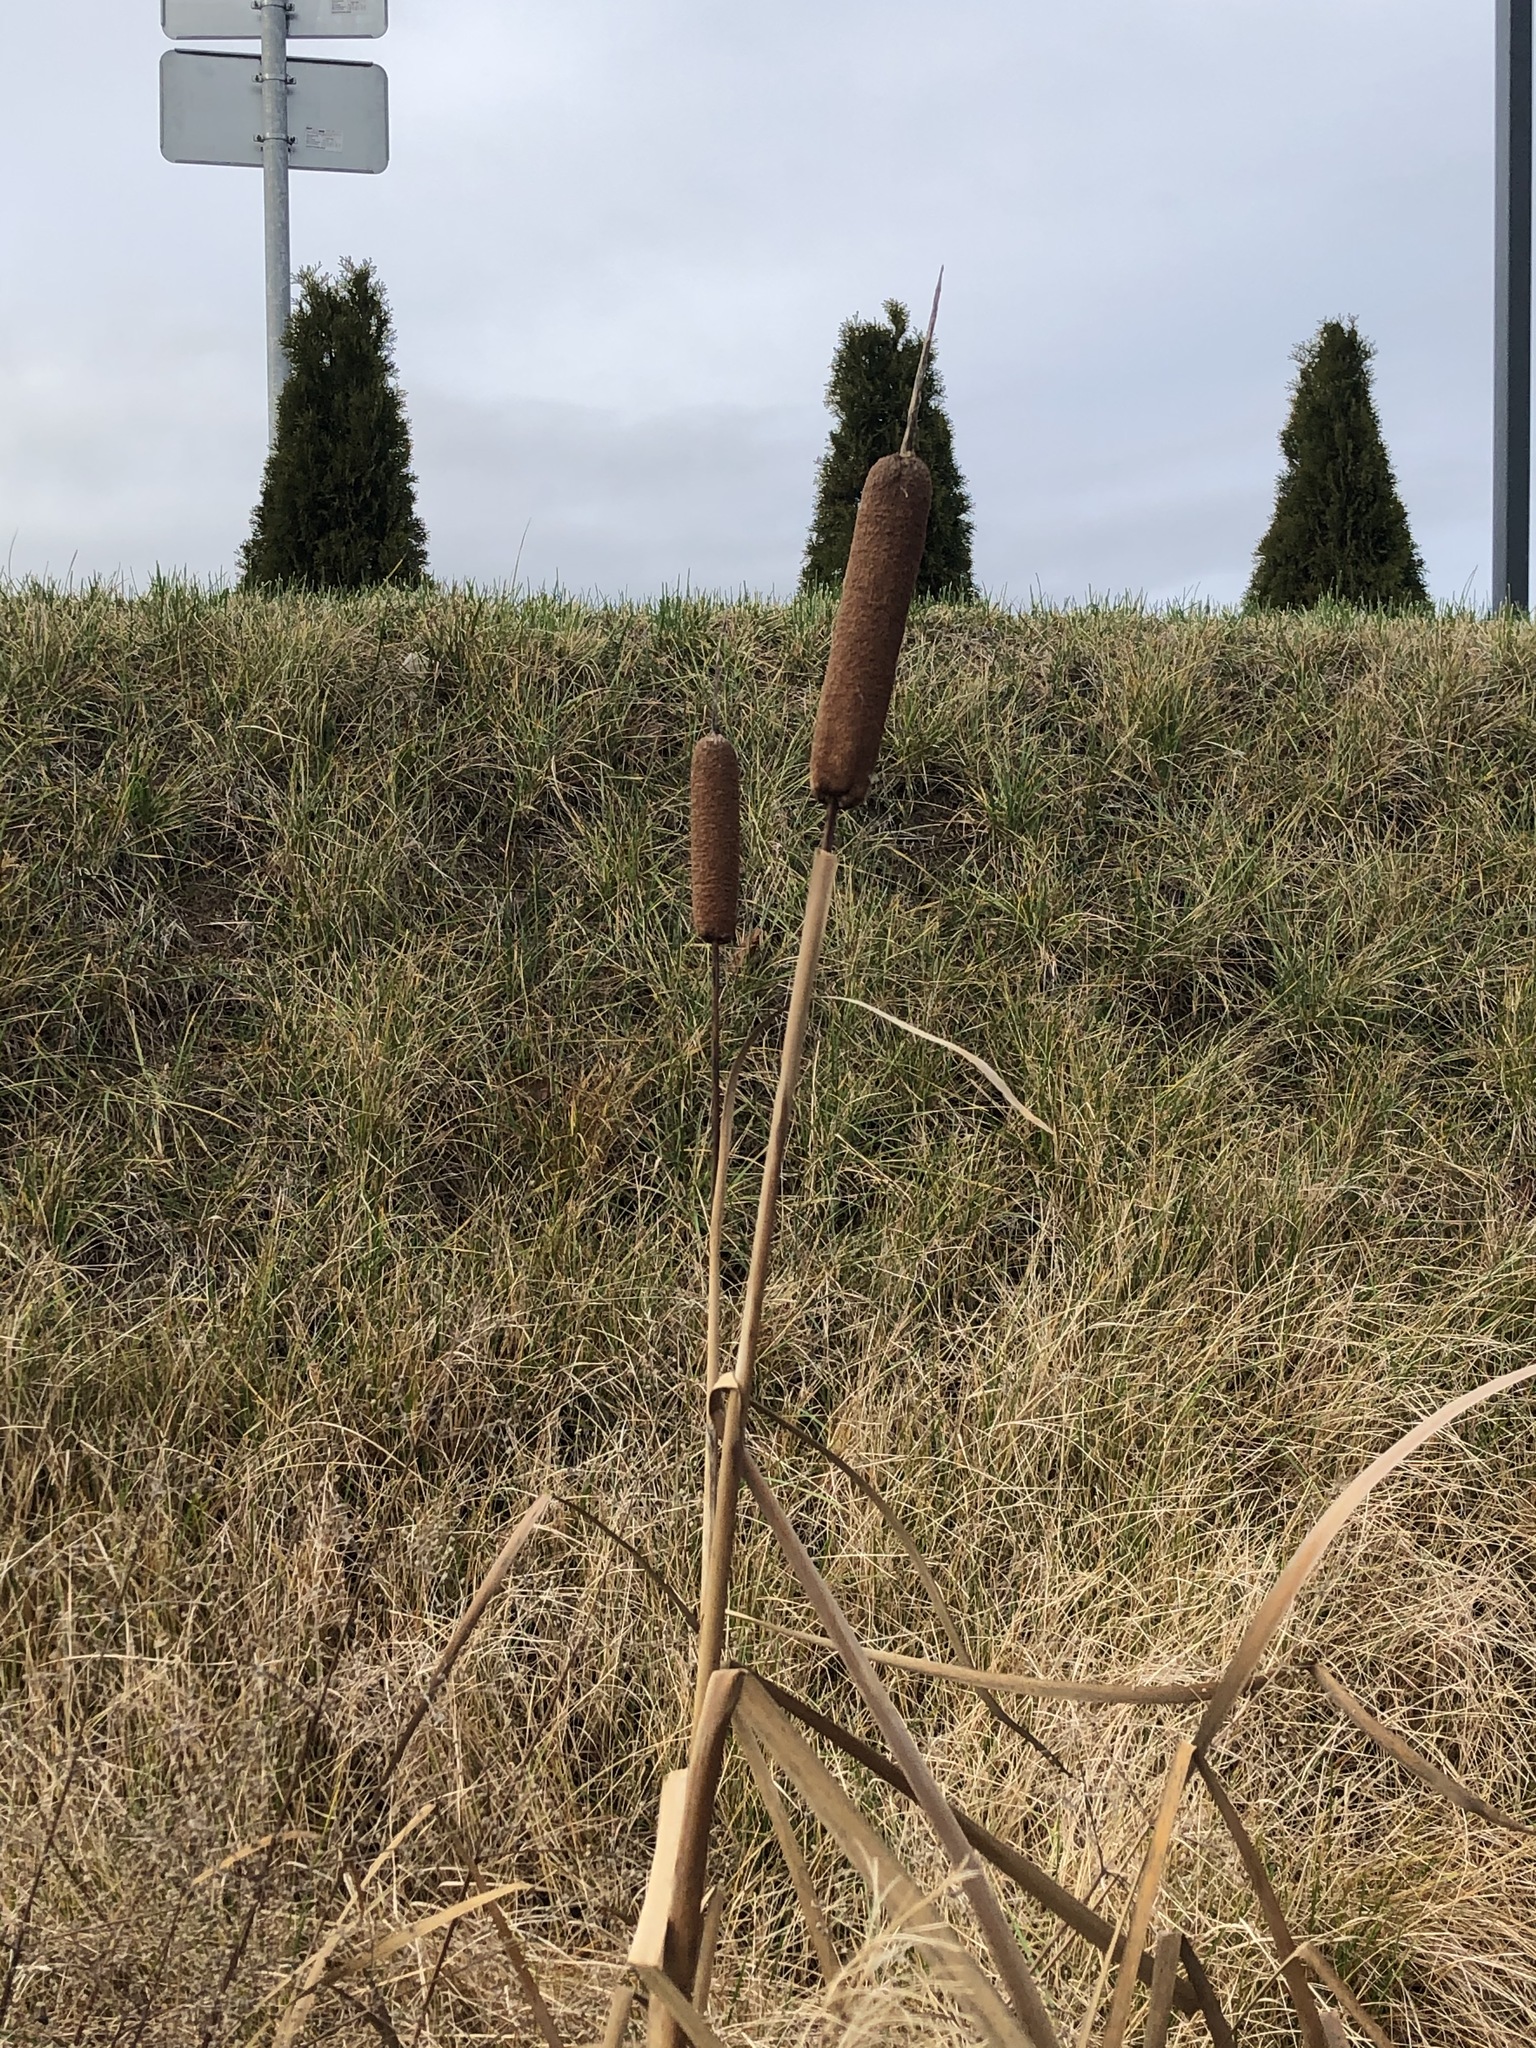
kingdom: Plantae
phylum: Tracheophyta
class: Liliopsida
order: Poales
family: Typhaceae
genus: Typha
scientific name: Typha latifolia
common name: Broadleaf cattail
